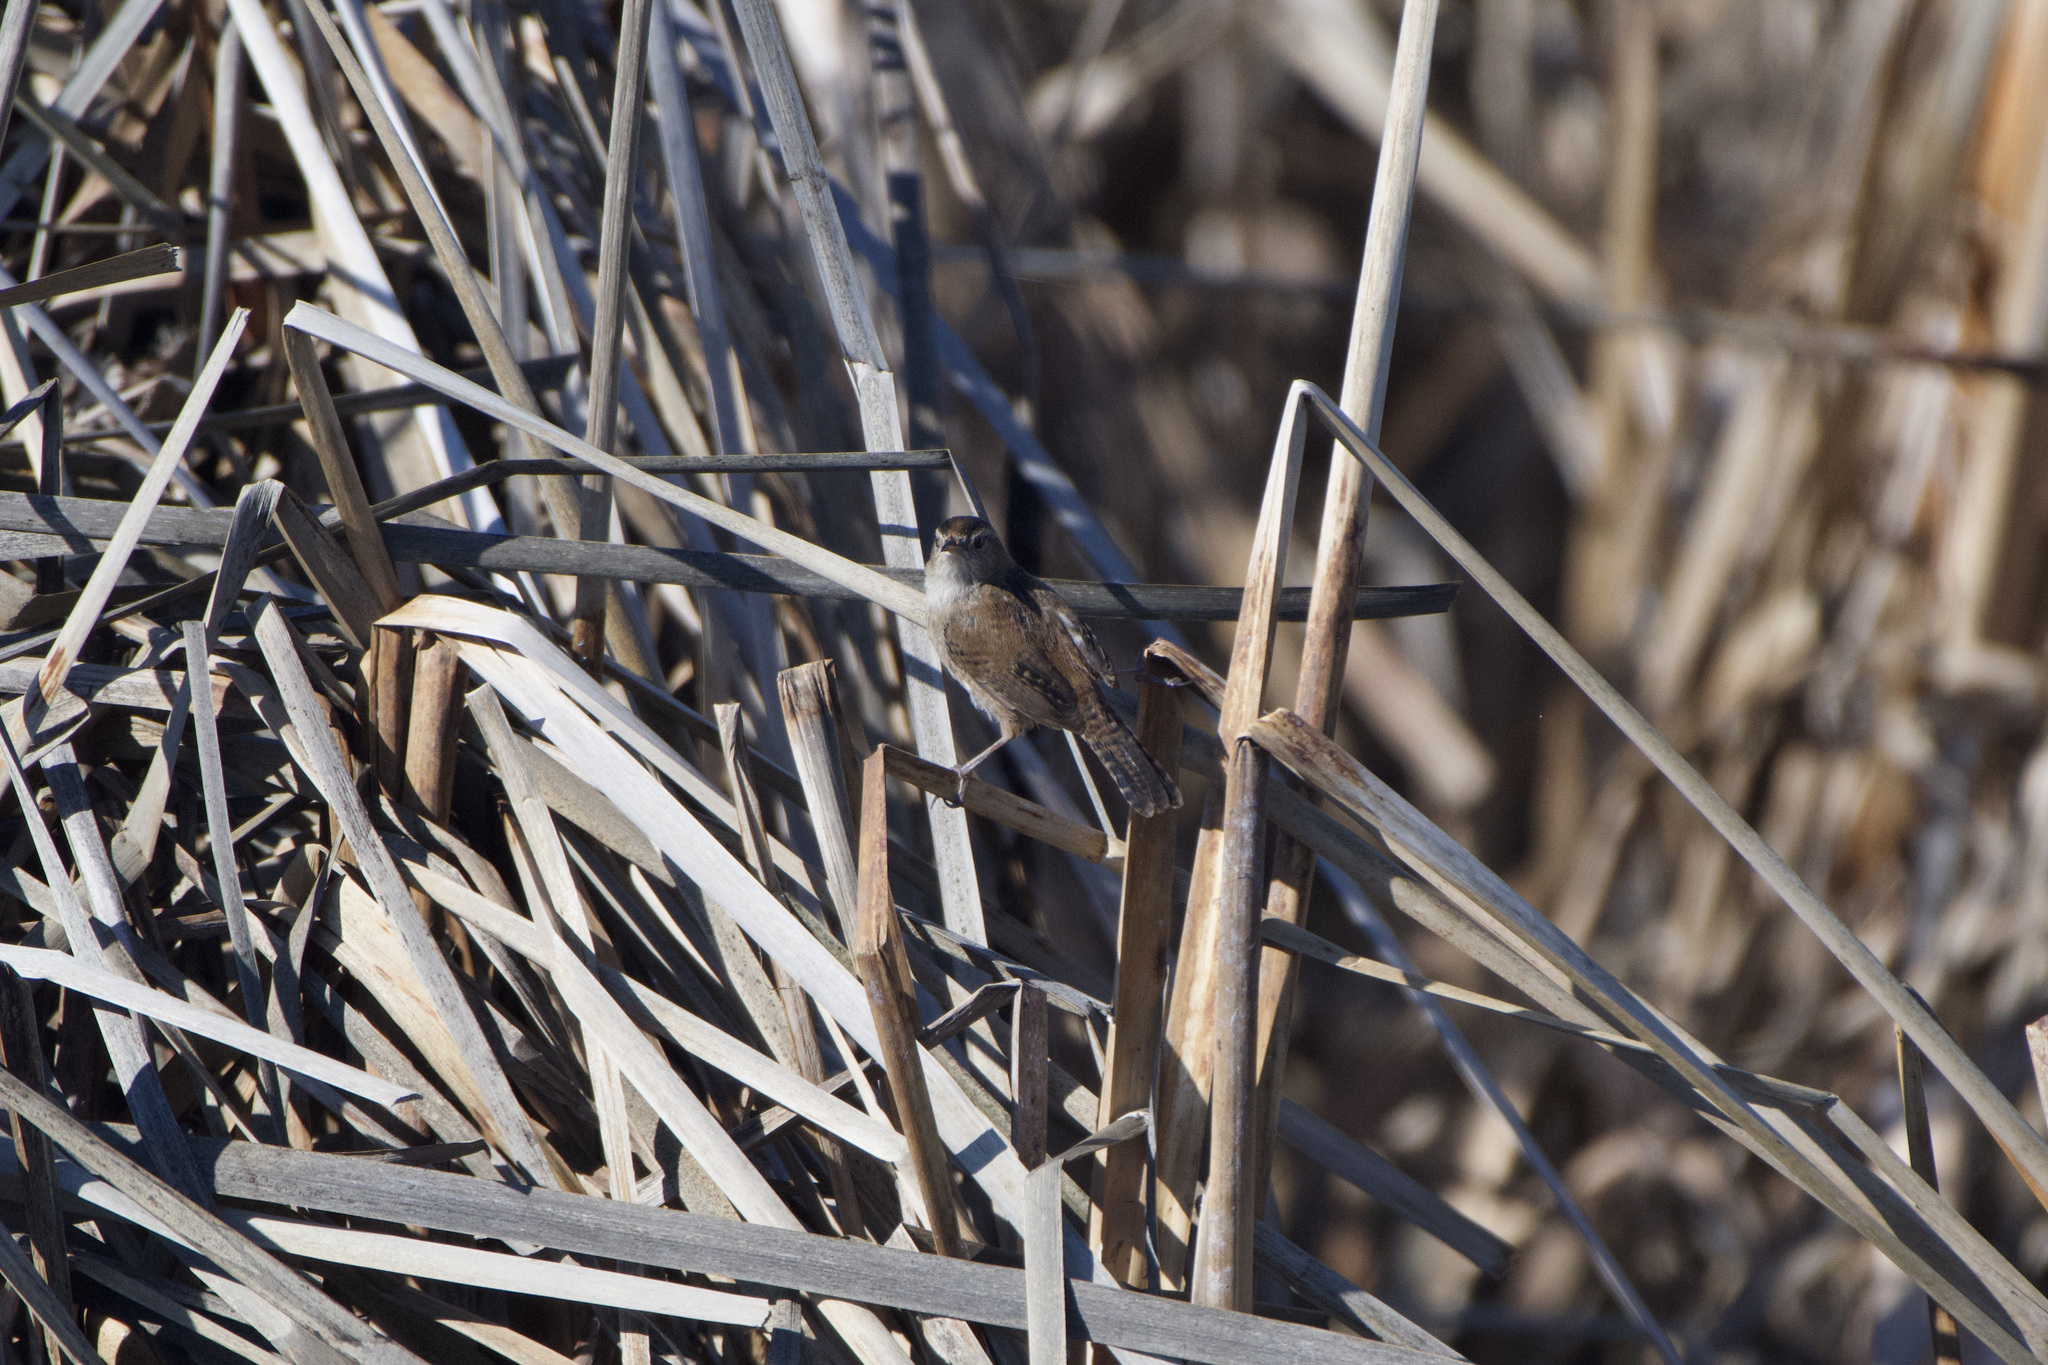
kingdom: Animalia
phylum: Chordata
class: Aves
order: Passeriformes
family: Troglodytidae
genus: Cistothorus
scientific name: Cistothorus palustris
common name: Marsh wren
